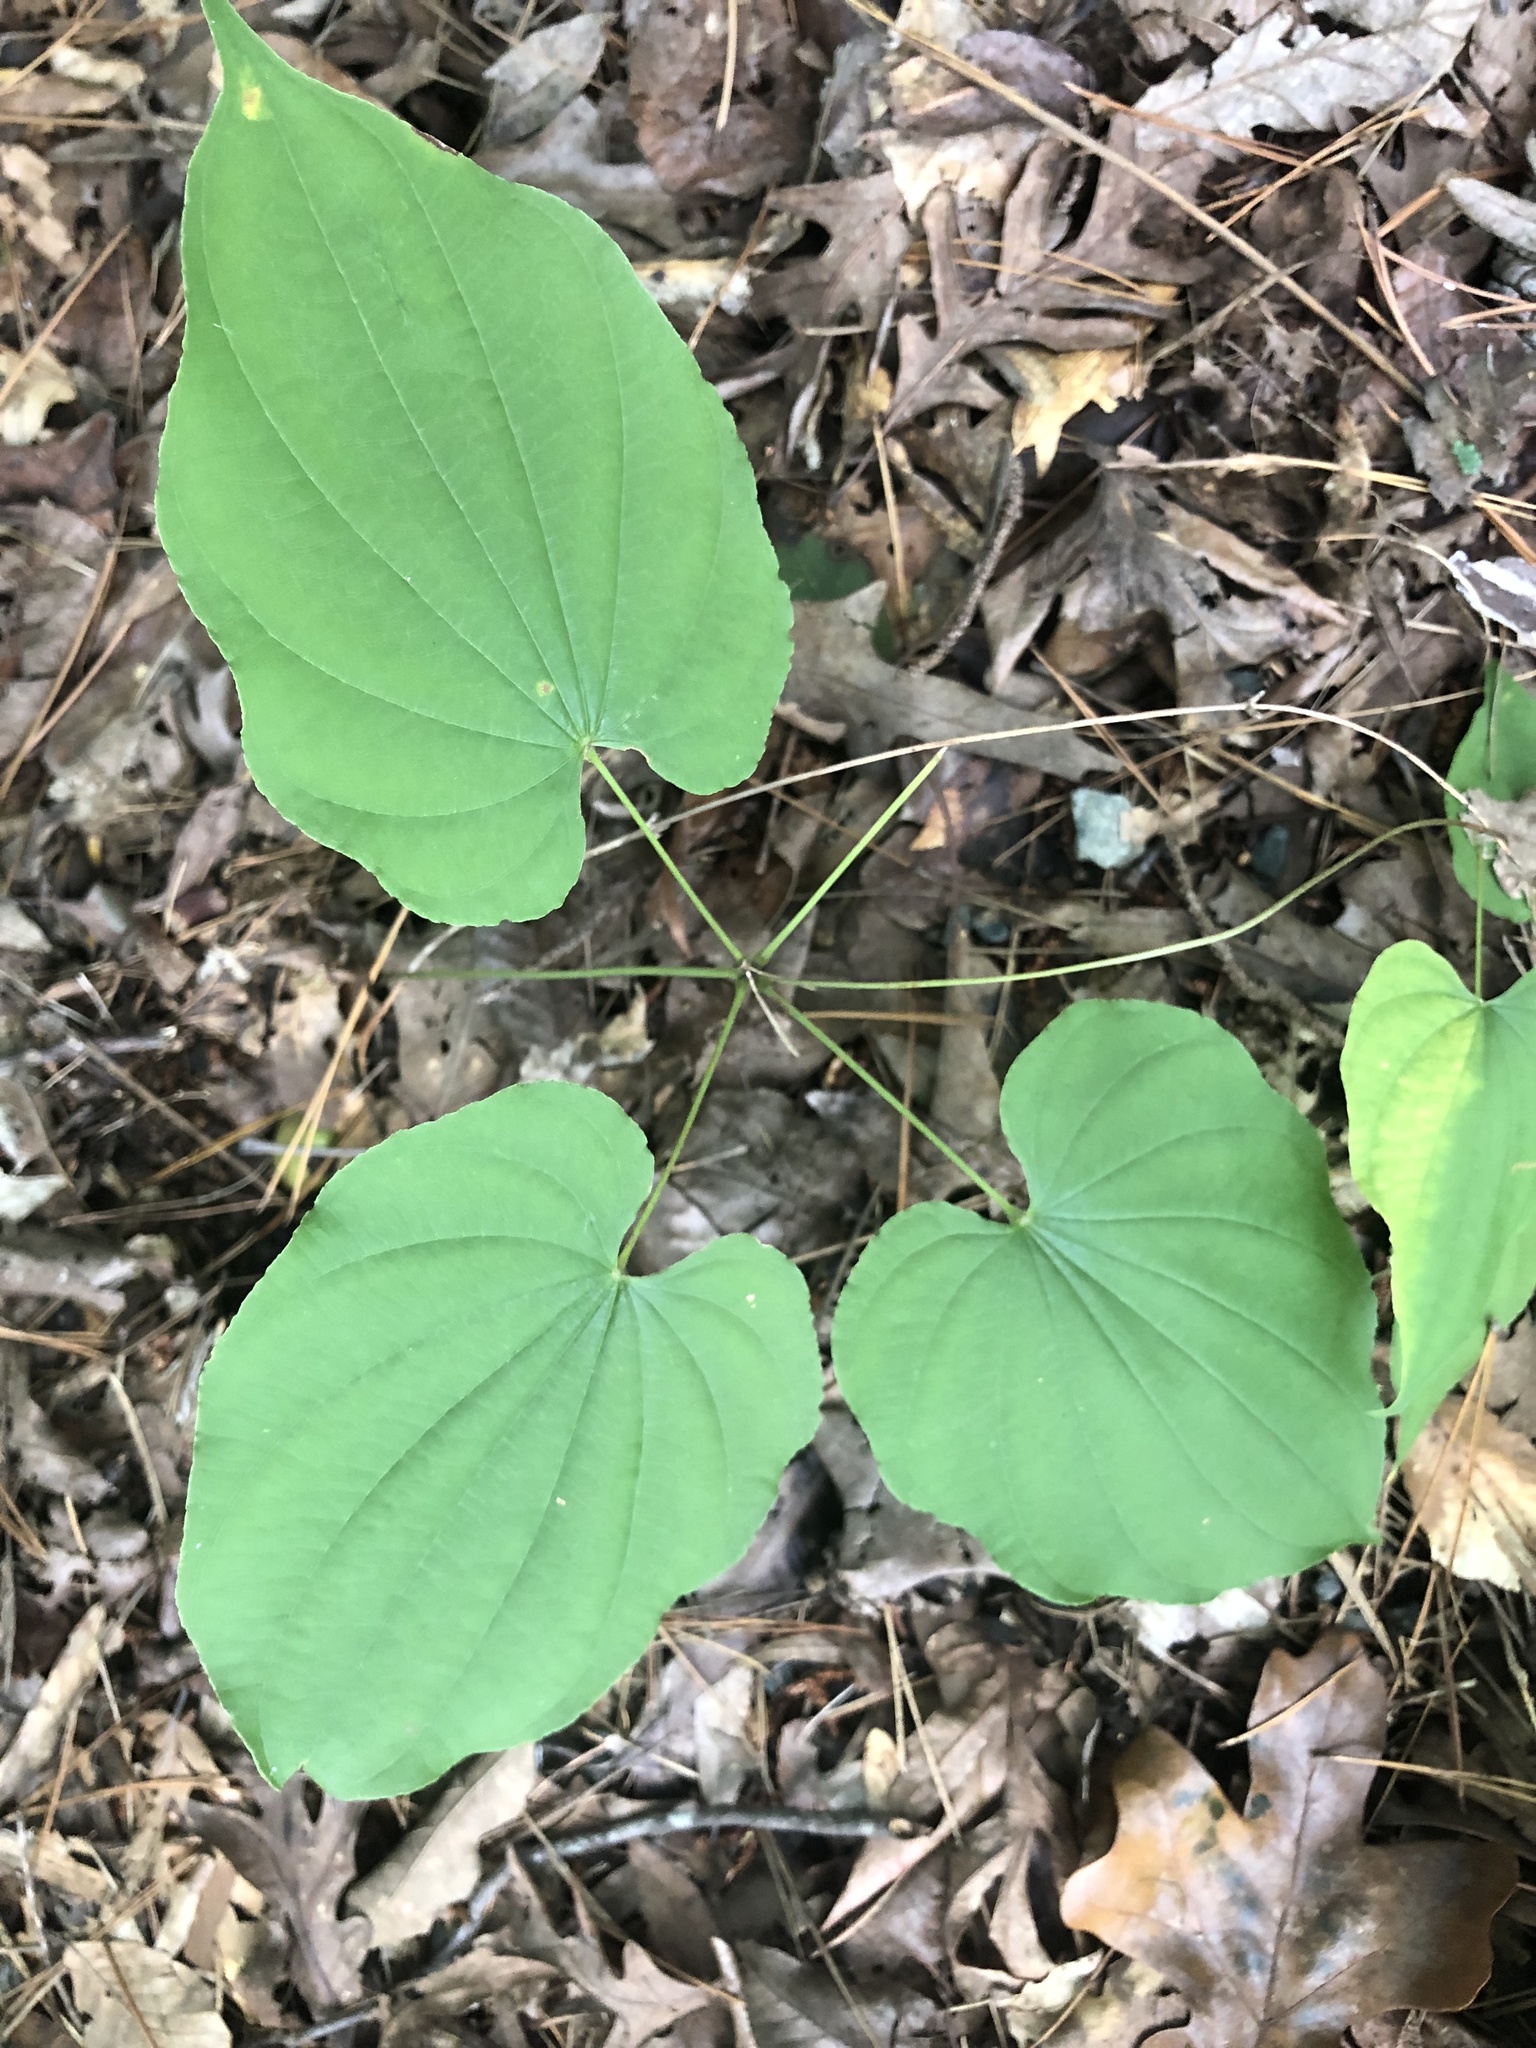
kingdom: Plantae
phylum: Tracheophyta
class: Liliopsida
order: Dioscoreales
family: Dioscoreaceae
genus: Dioscorea
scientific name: Dioscorea villosa
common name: Wild yam
